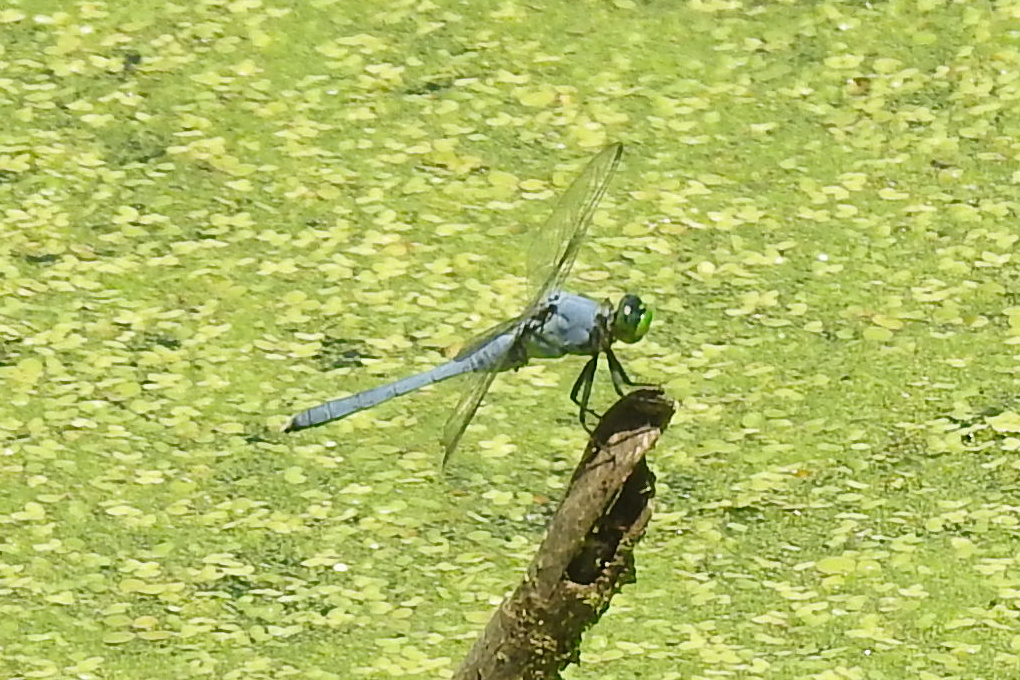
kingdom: Animalia
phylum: Arthropoda
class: Insecta
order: Odonata
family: Libellulidae
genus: Erythemis
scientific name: Erythemis simplicicollis
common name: Eastern pondhawk
